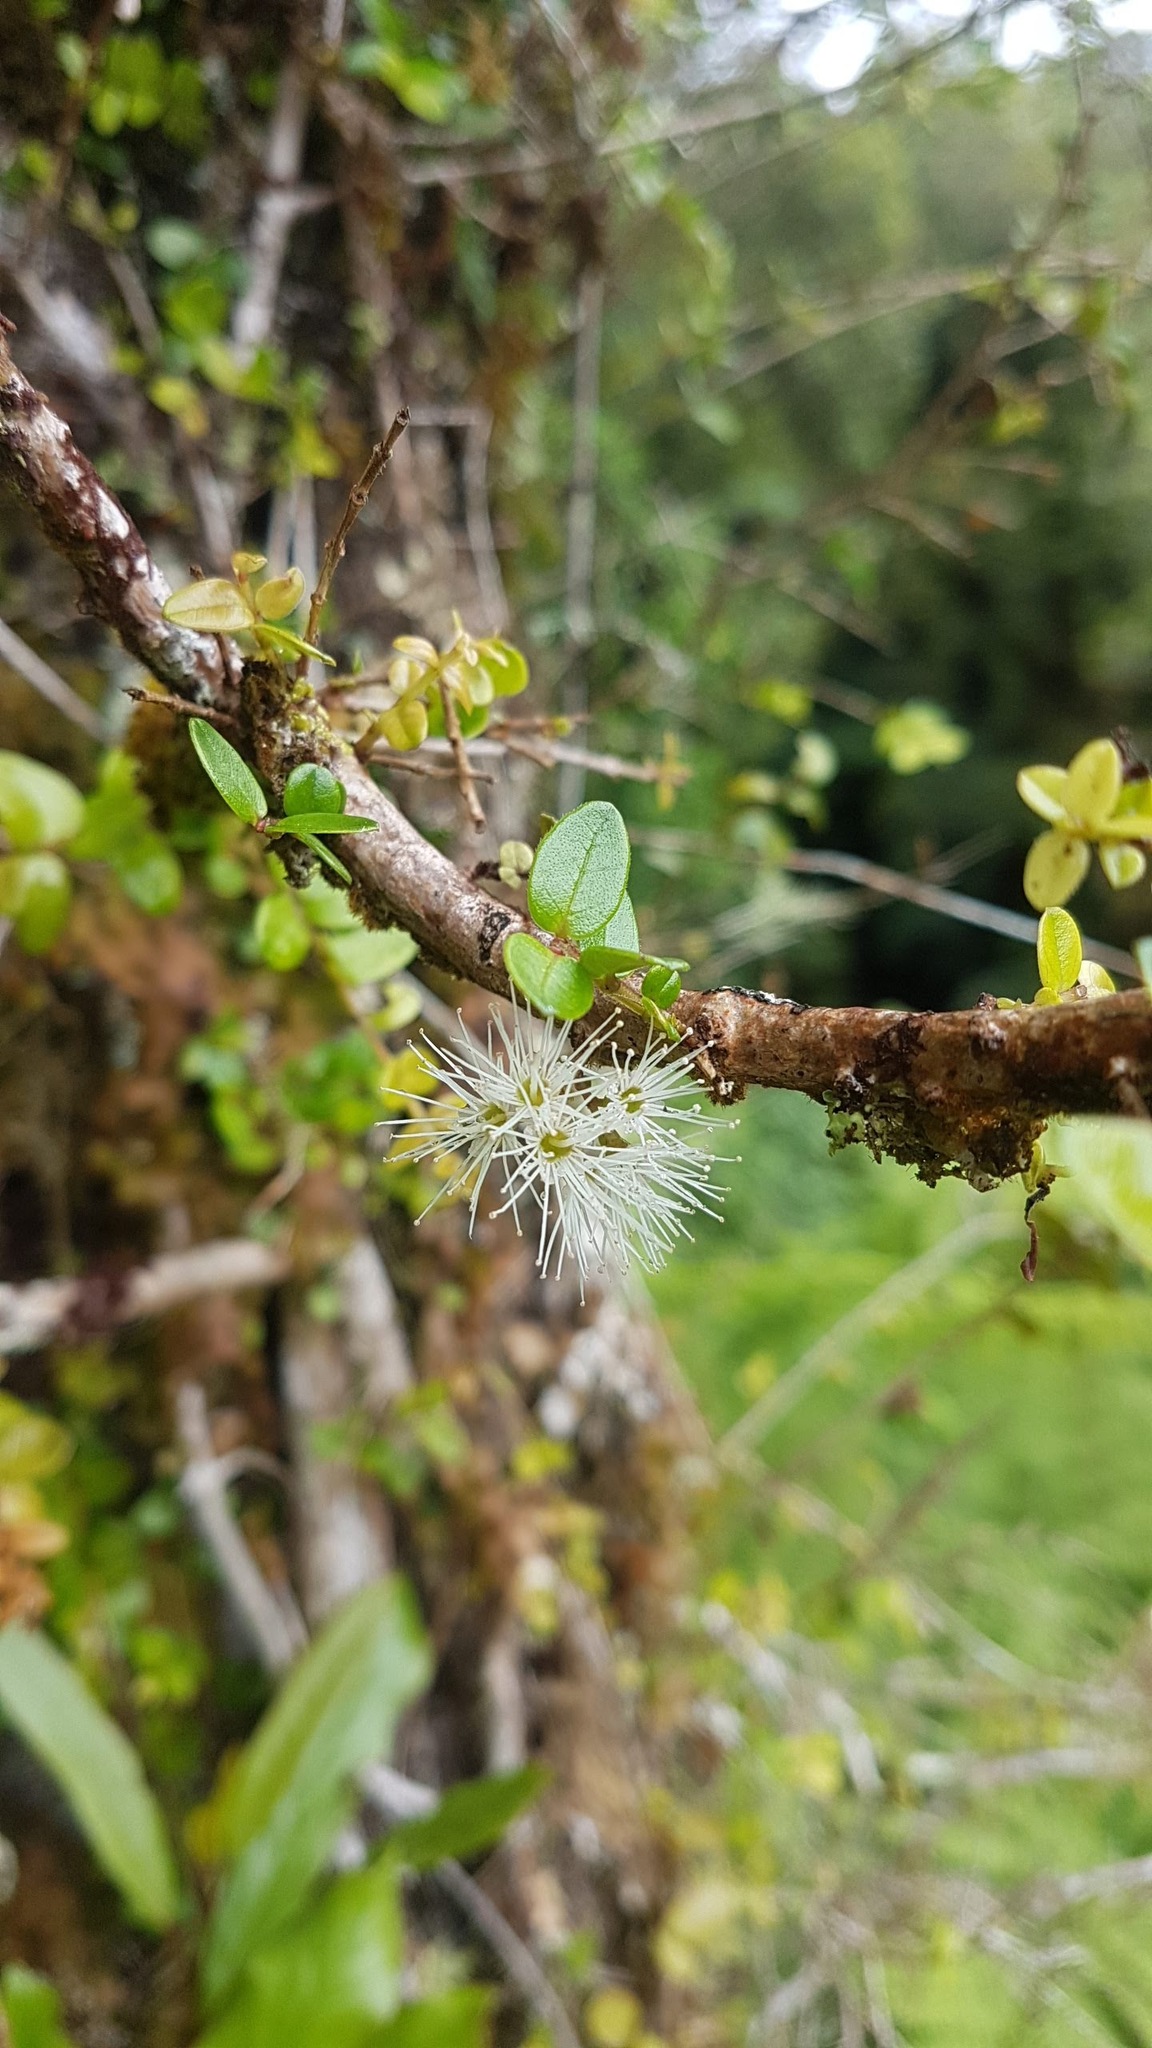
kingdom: Plantae
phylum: Tracheophyta
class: Magnoliopsida
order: Myrtales
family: Myrtaceae
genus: Metrosideros
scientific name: Metrosideros diffusa
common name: Small ratavine
